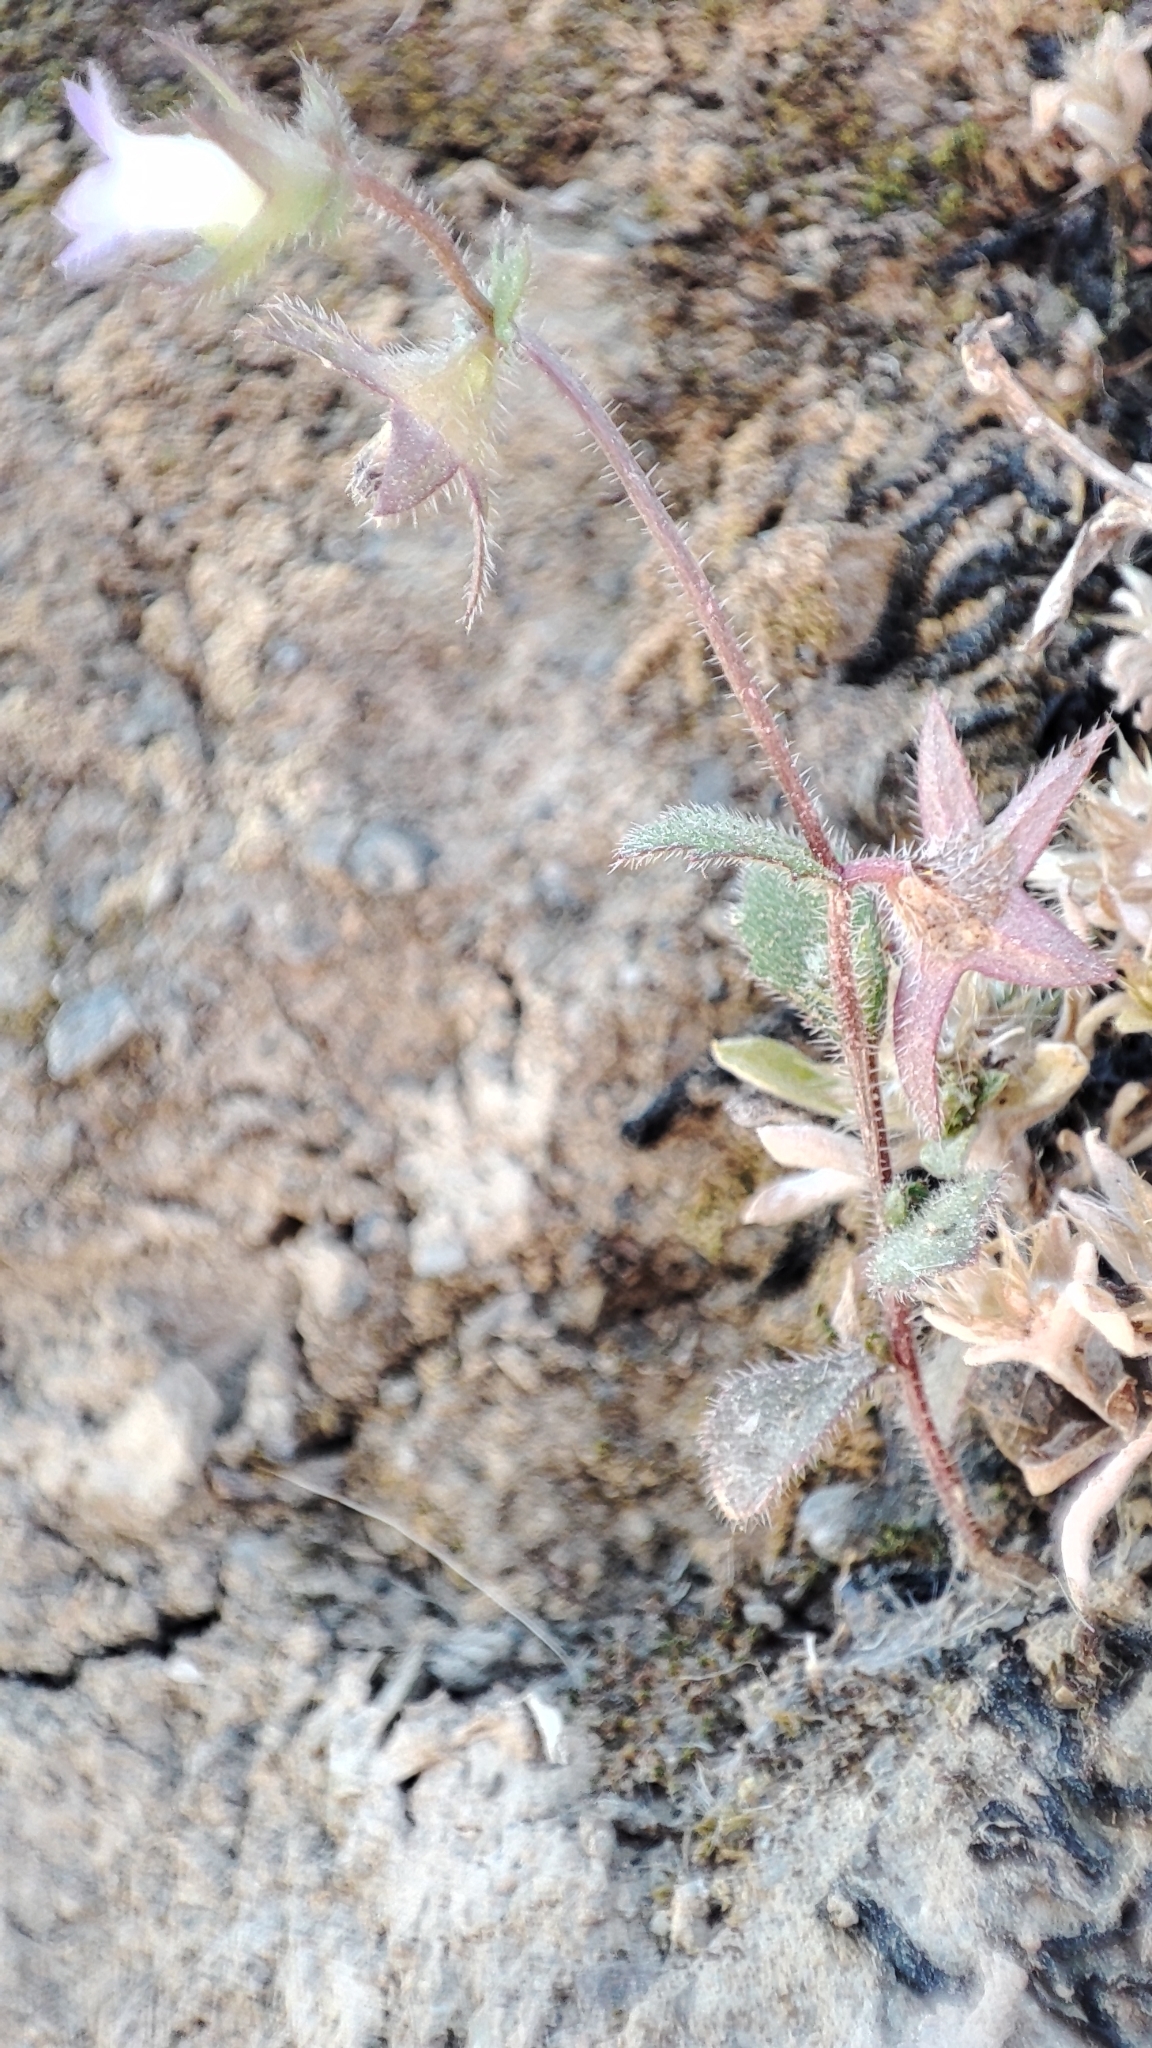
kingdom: Plantae
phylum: Tracheophyta
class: Magnoliopsida
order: Asterales
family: Campanulaceae
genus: Campanula
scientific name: Campanula erinus
